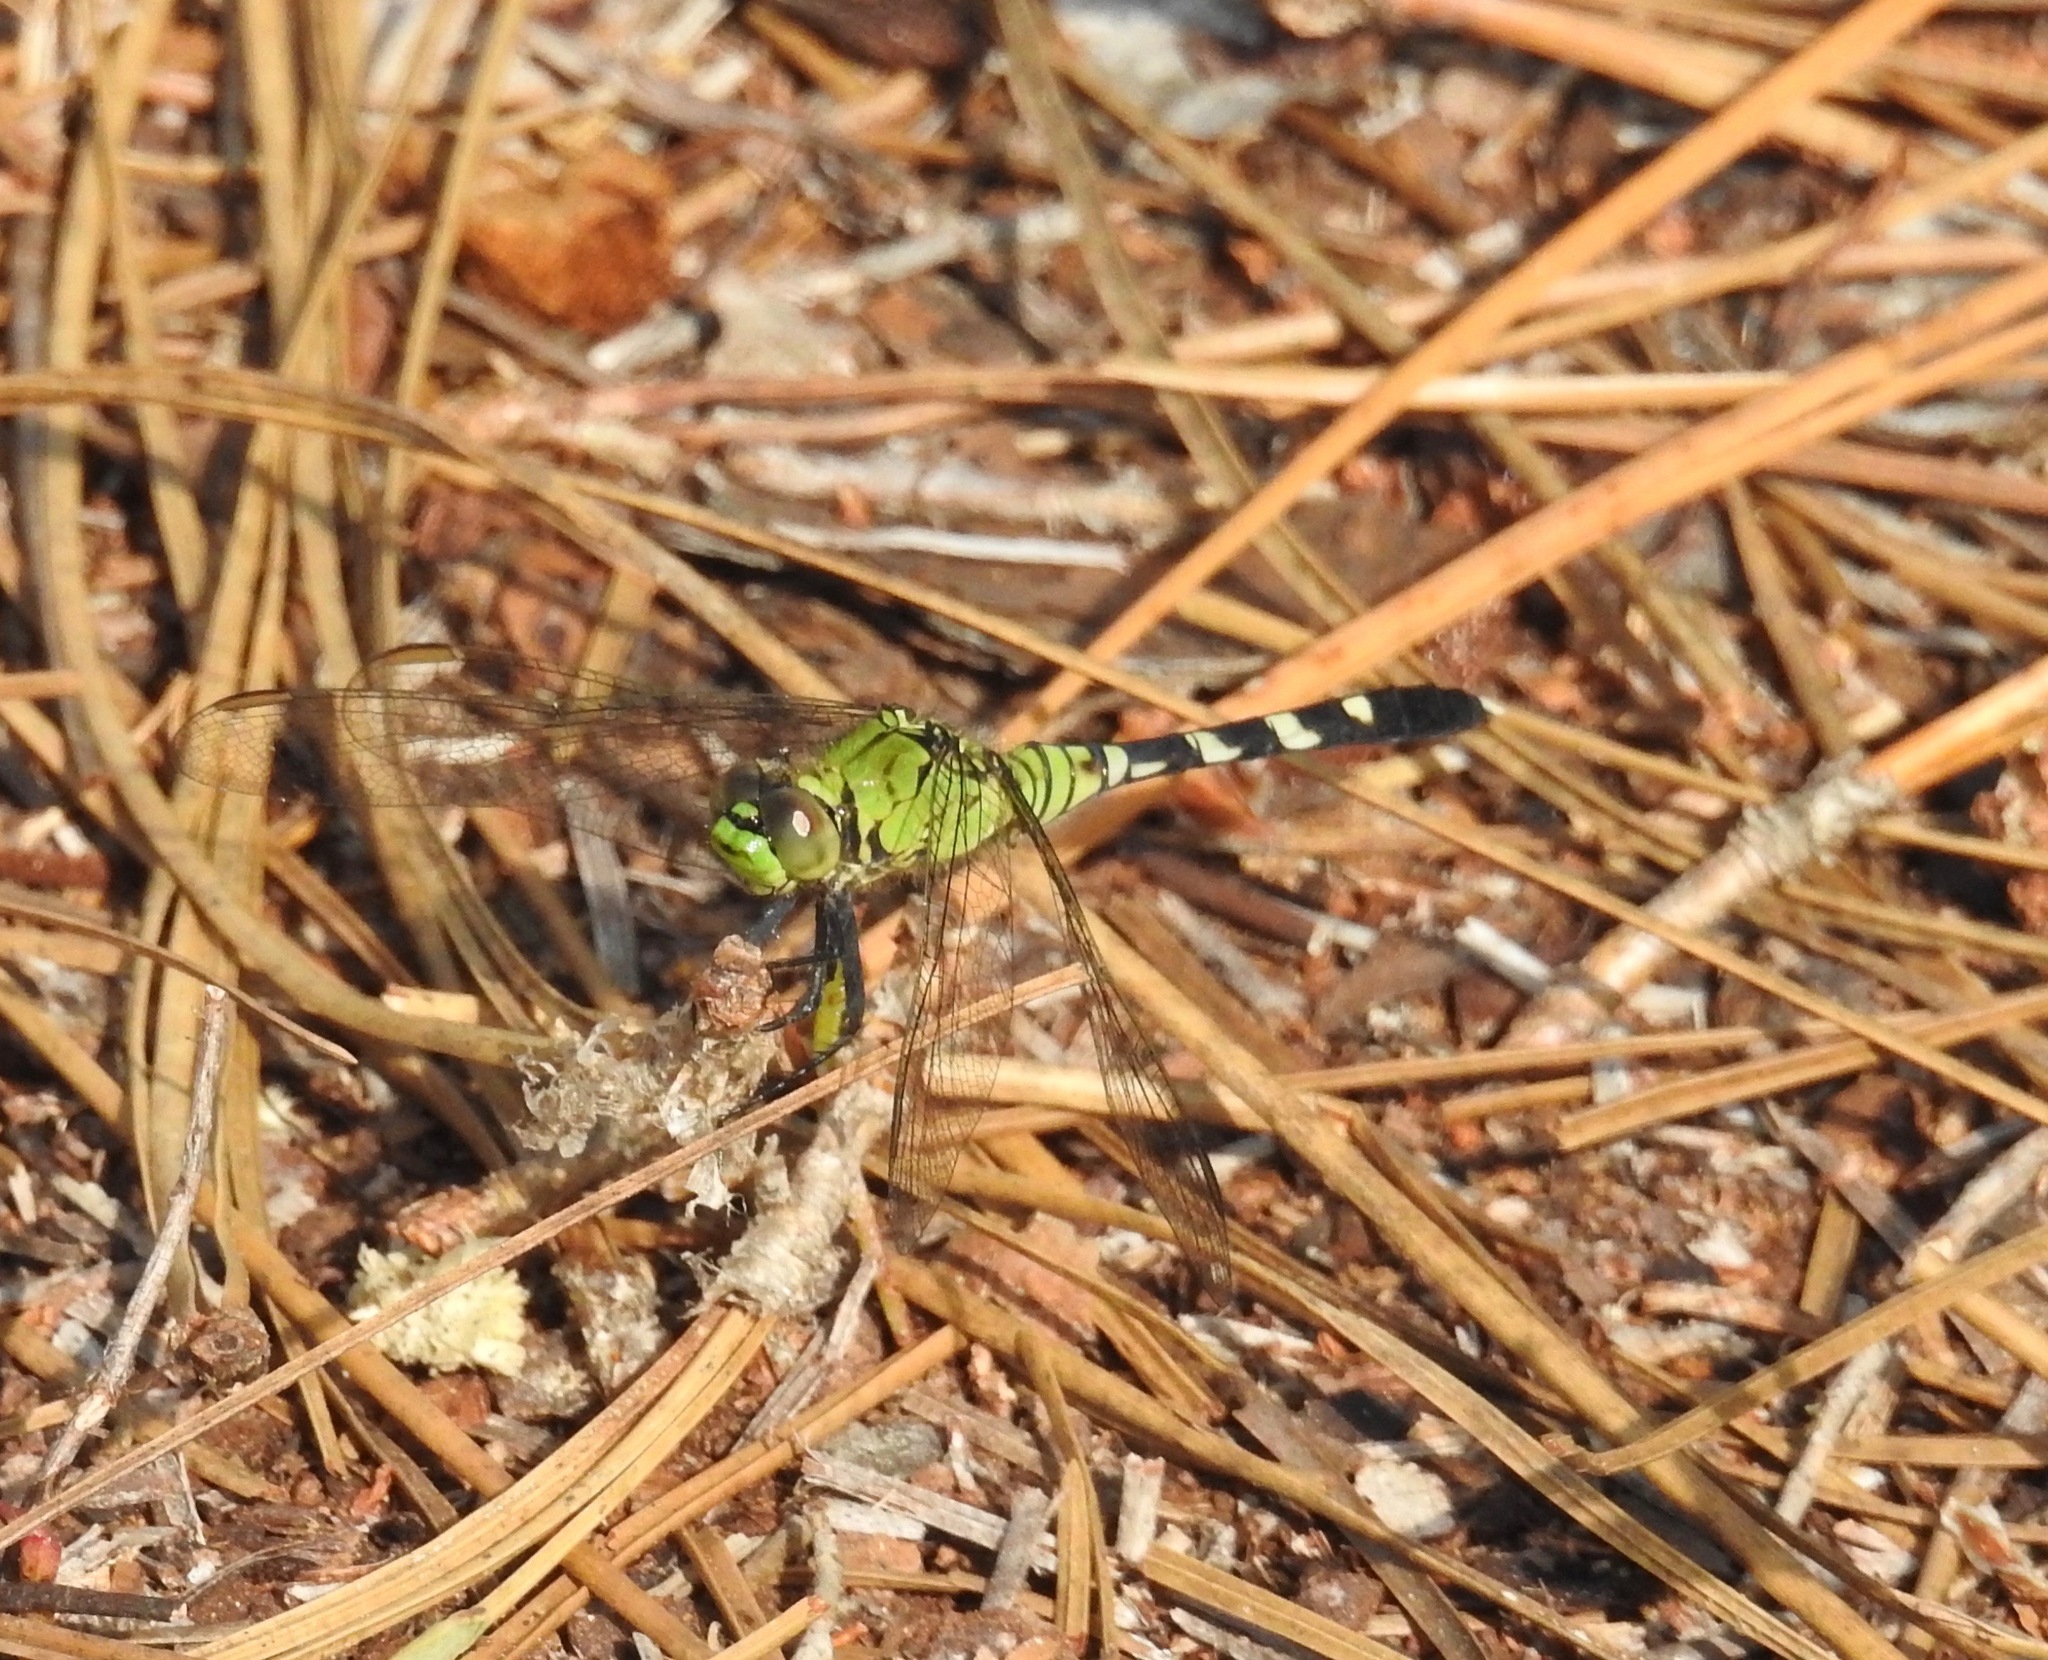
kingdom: Animalia
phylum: Arthropoda
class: Insecta
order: Odonata
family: Libellulidae
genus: Erythemis
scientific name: Erythemis simplicicollis
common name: Eastern pondhawk
